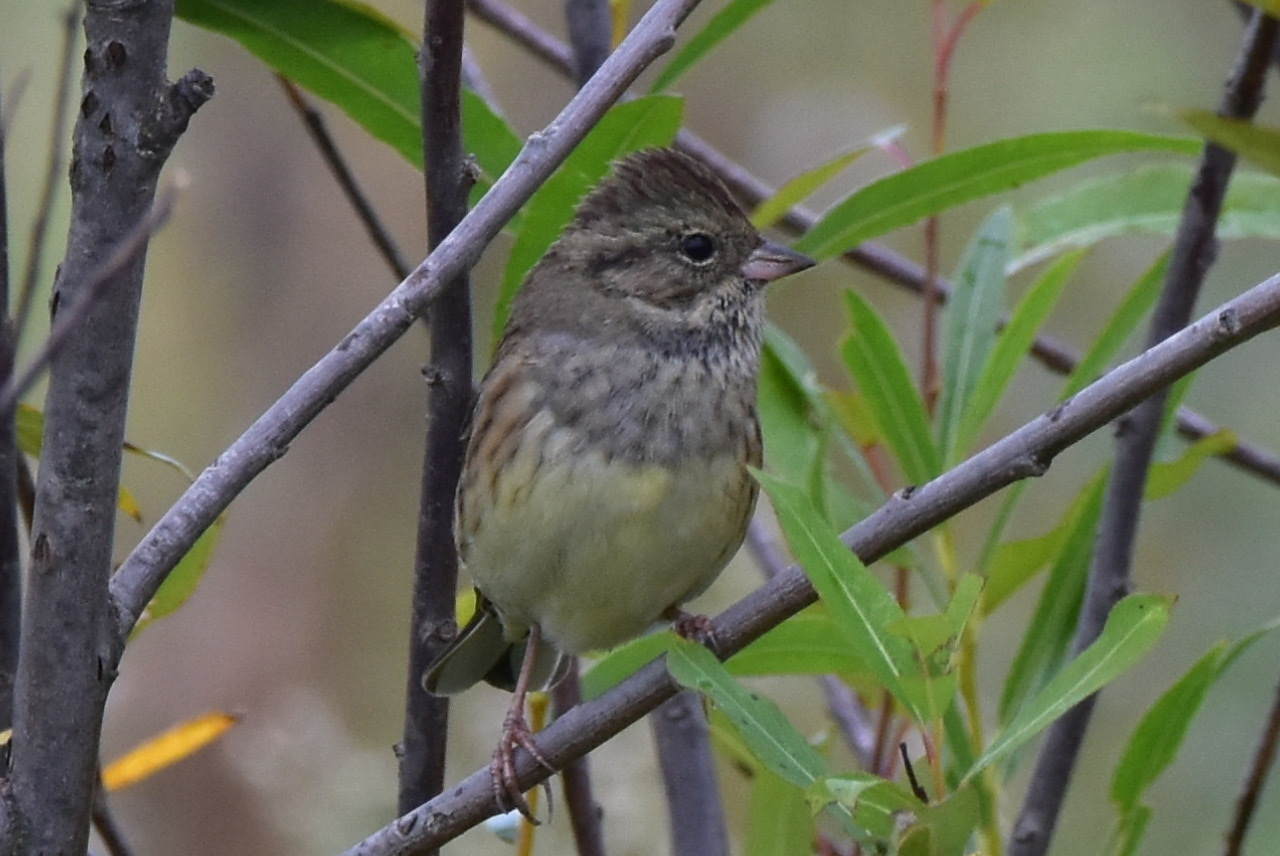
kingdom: Animalia
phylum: Chordata
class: Aves
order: Passeriformes
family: Emberizidae
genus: Emberiza
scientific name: Emberiza spodocephala
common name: Black-faced bunting
